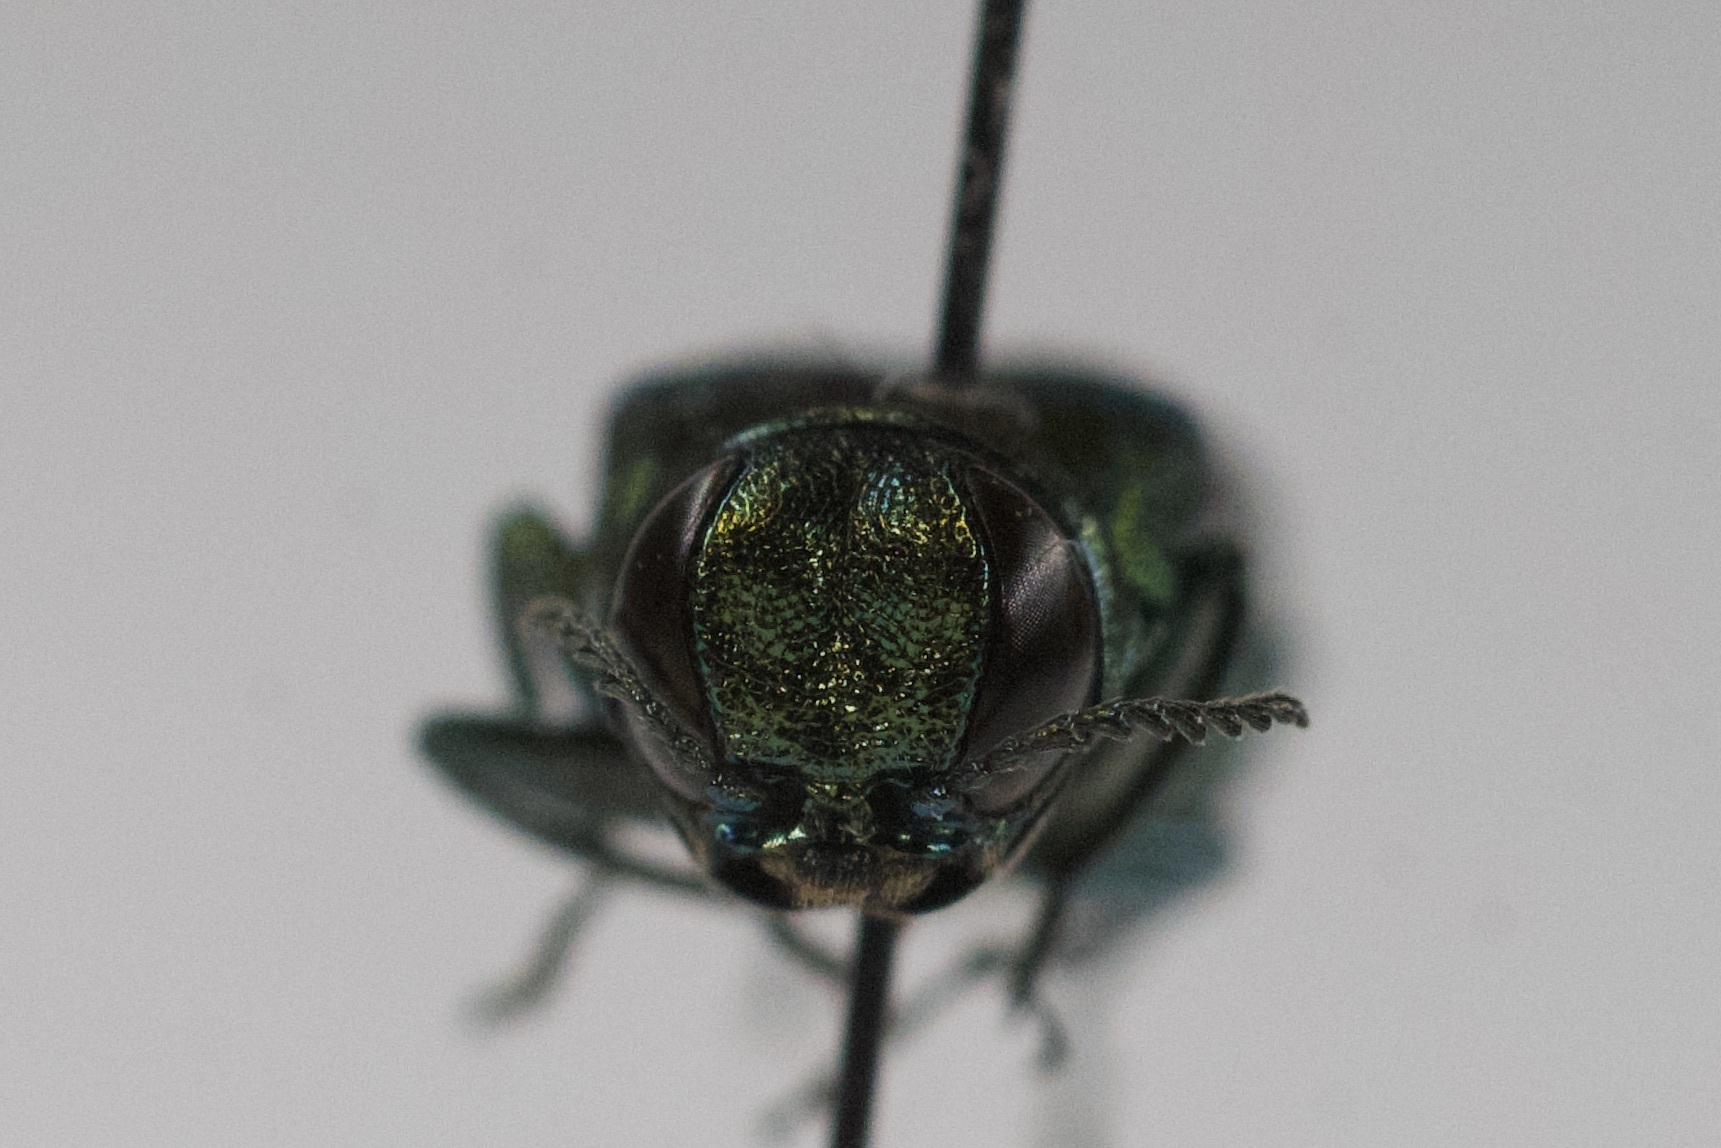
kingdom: Animalia
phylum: Arthropoda
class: Insecta
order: Coleoptera
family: Buprestidae
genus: Agrilus
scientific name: Agrilus planipennis
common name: Emerald ash borer
